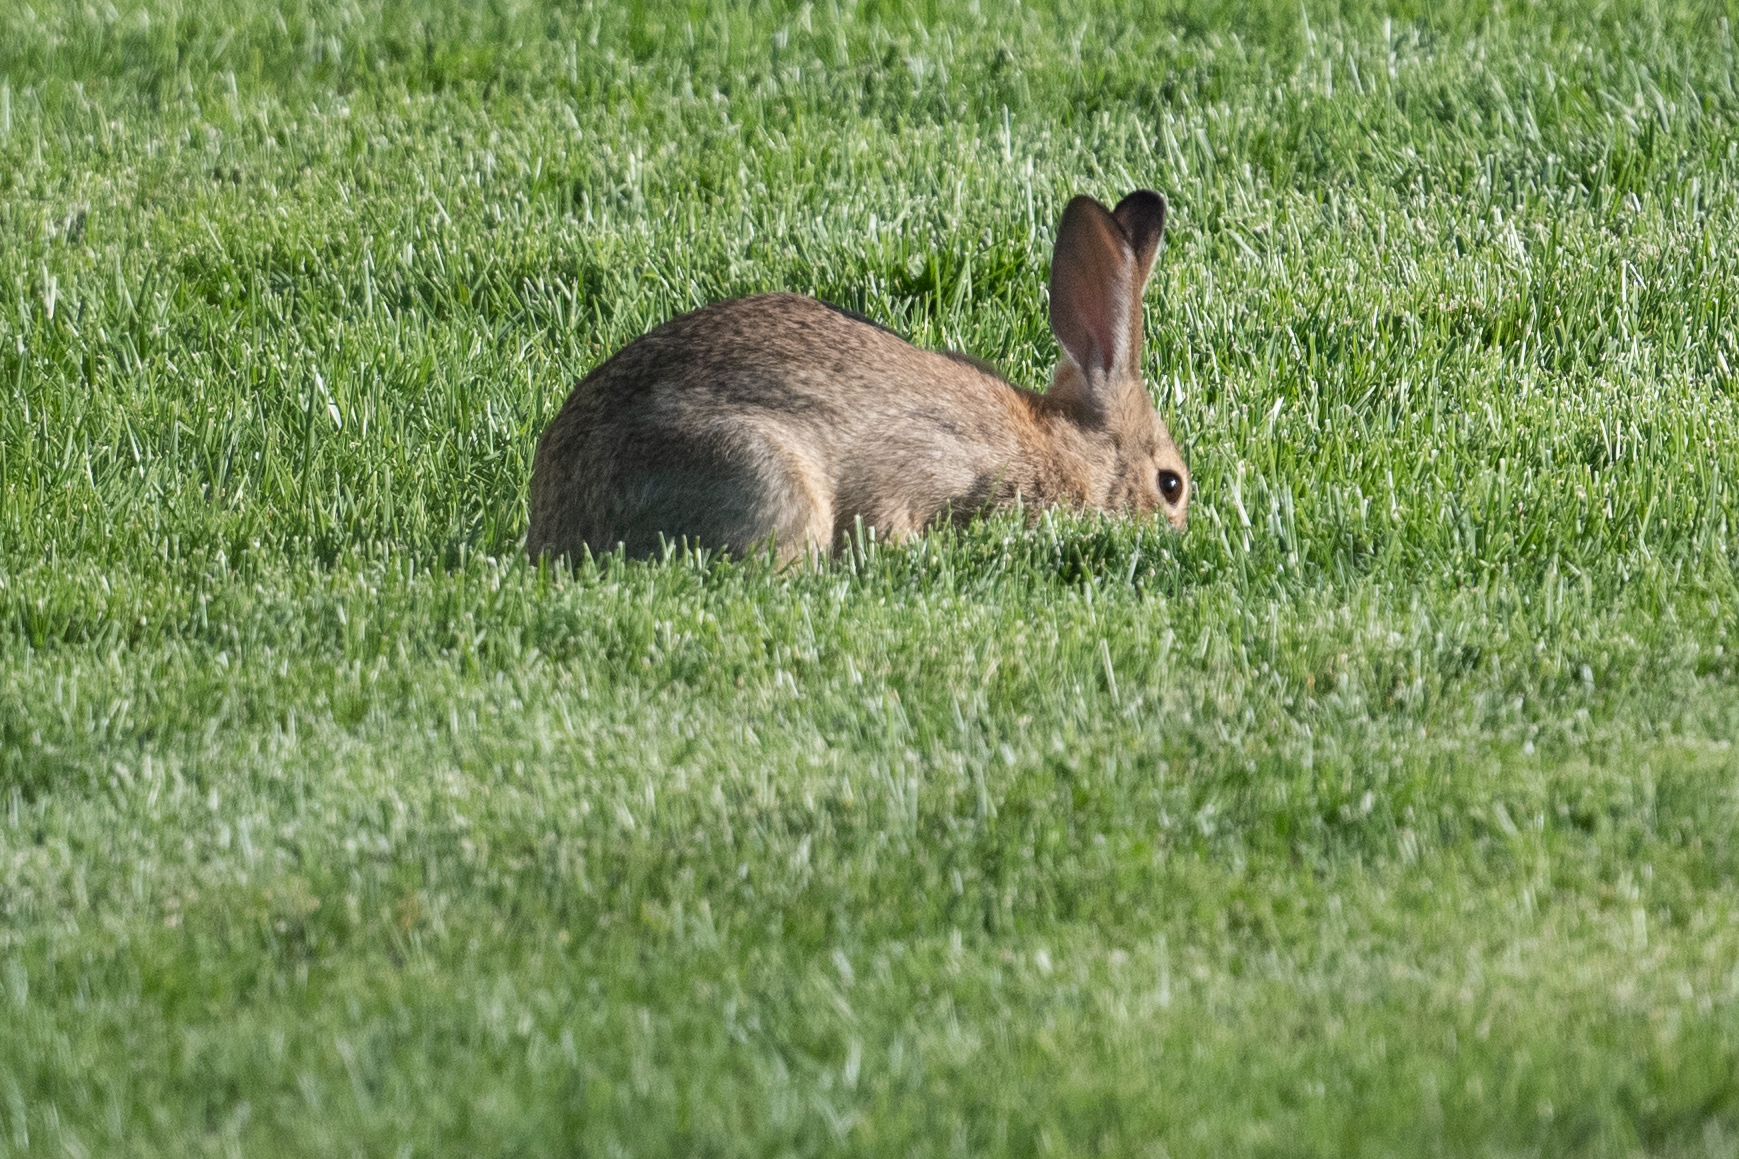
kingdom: Animalia
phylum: Chordata
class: Mammalia
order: Lagomorpha
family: Leporidae
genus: Sylvilagus
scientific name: Sylvilagus audubonii
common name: Desert cottontail
